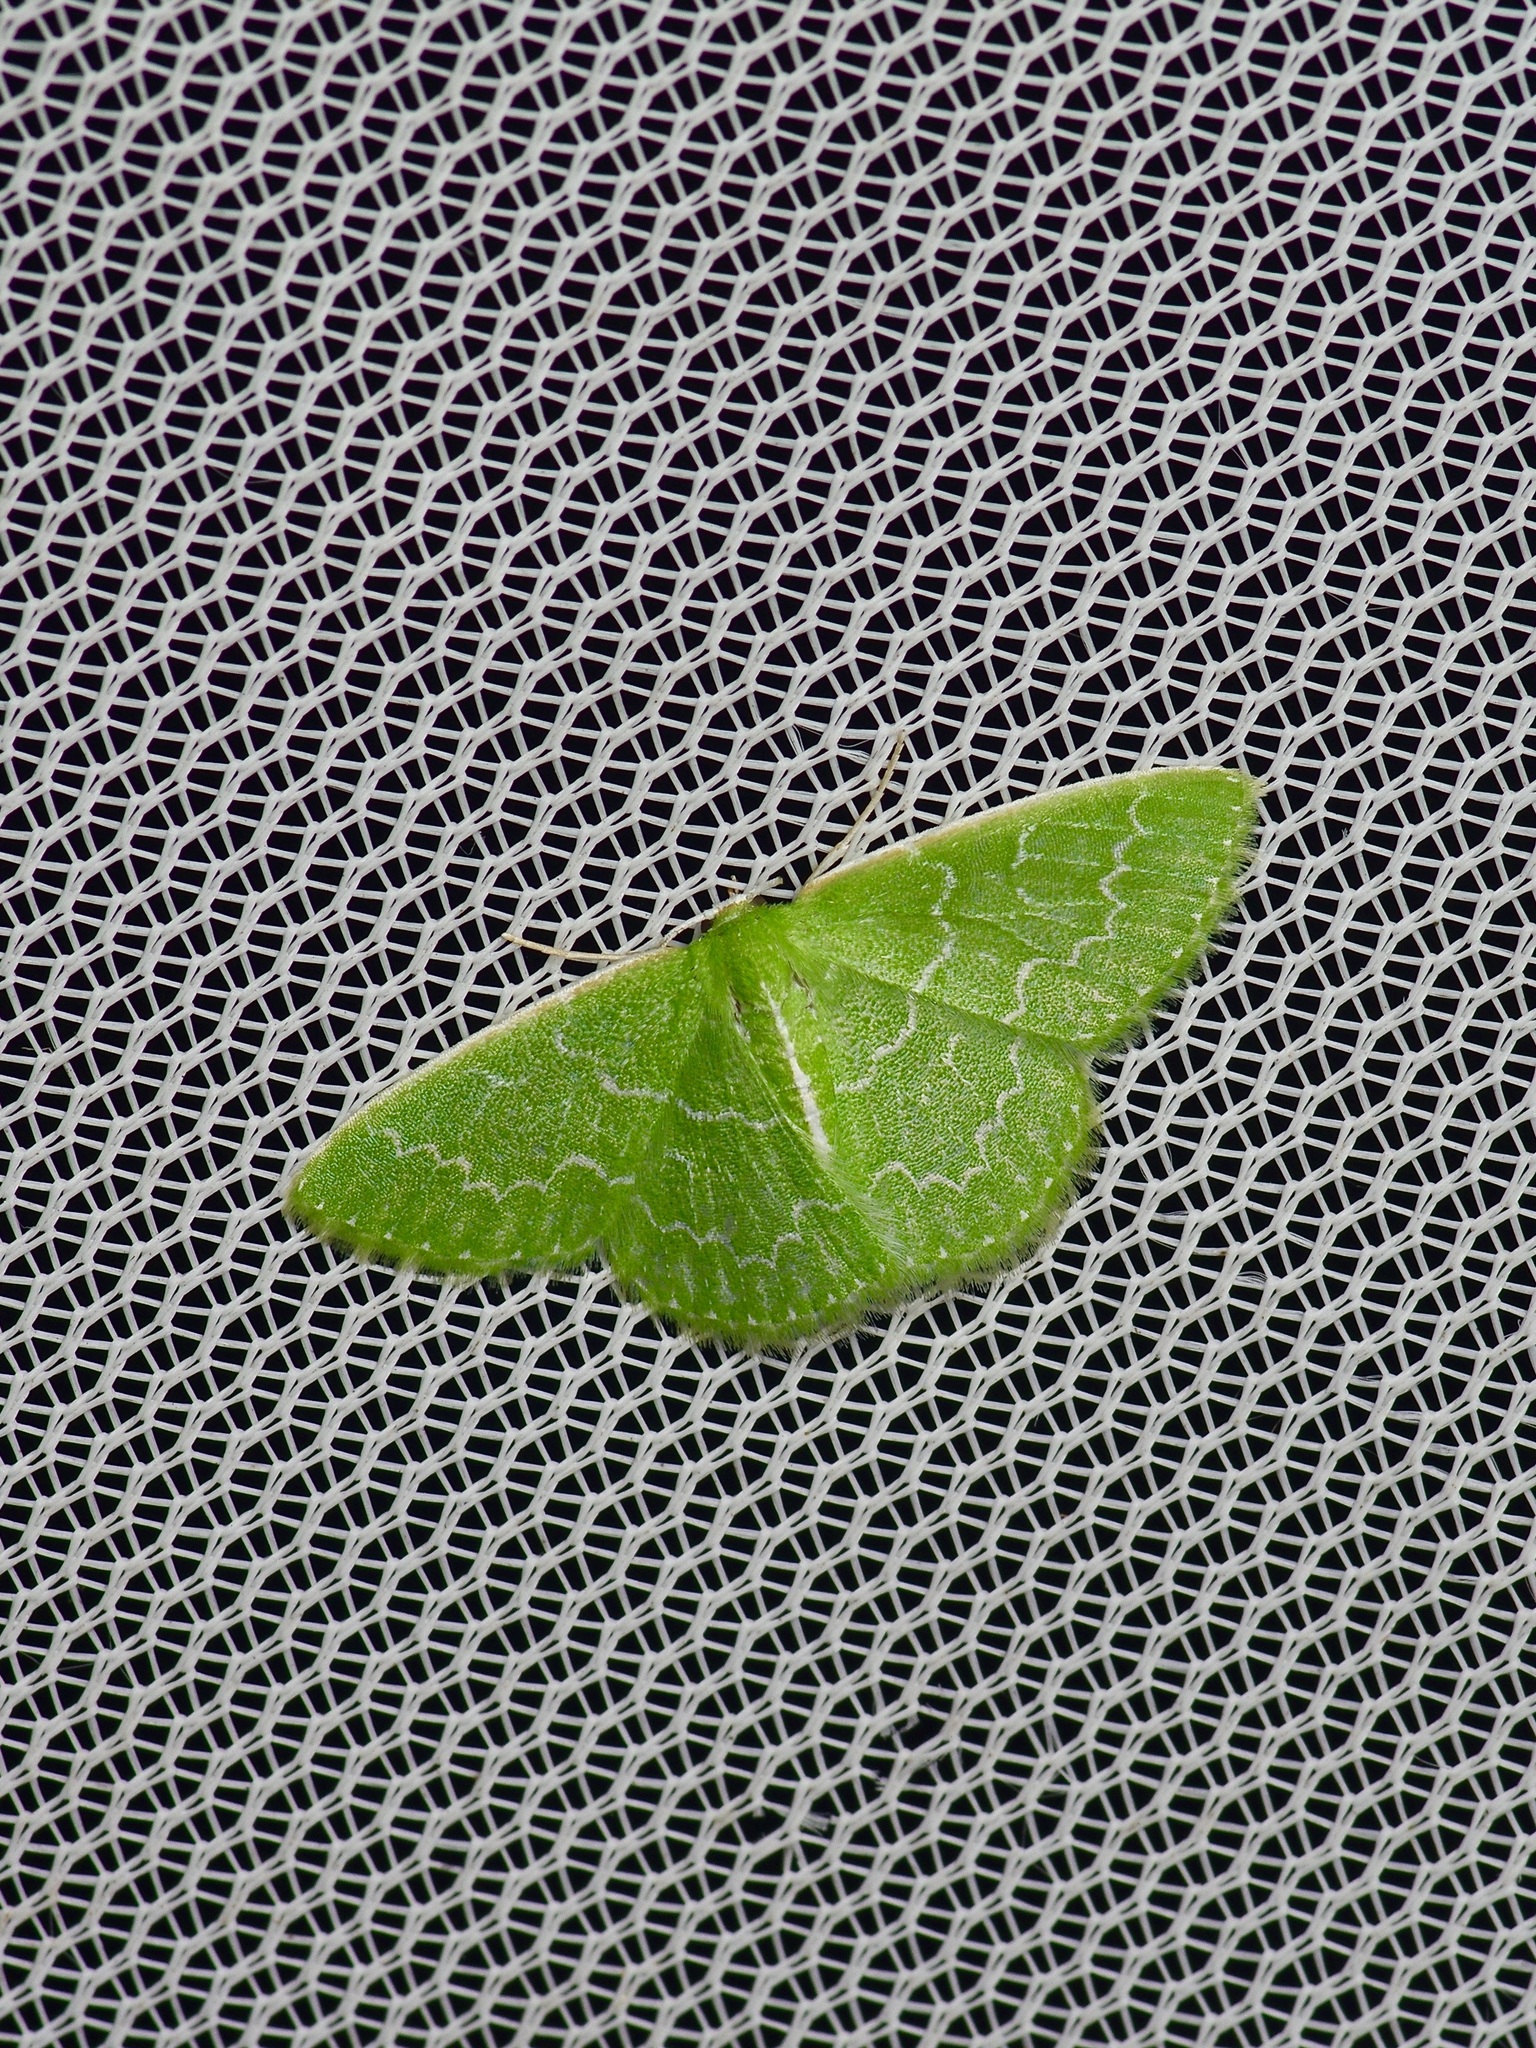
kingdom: Animalia
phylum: Arthropoda
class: Insecta
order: Lepidoptera
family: Geometridae
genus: Synchlora
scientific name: Synchlora frondaria
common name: Southern emerald
